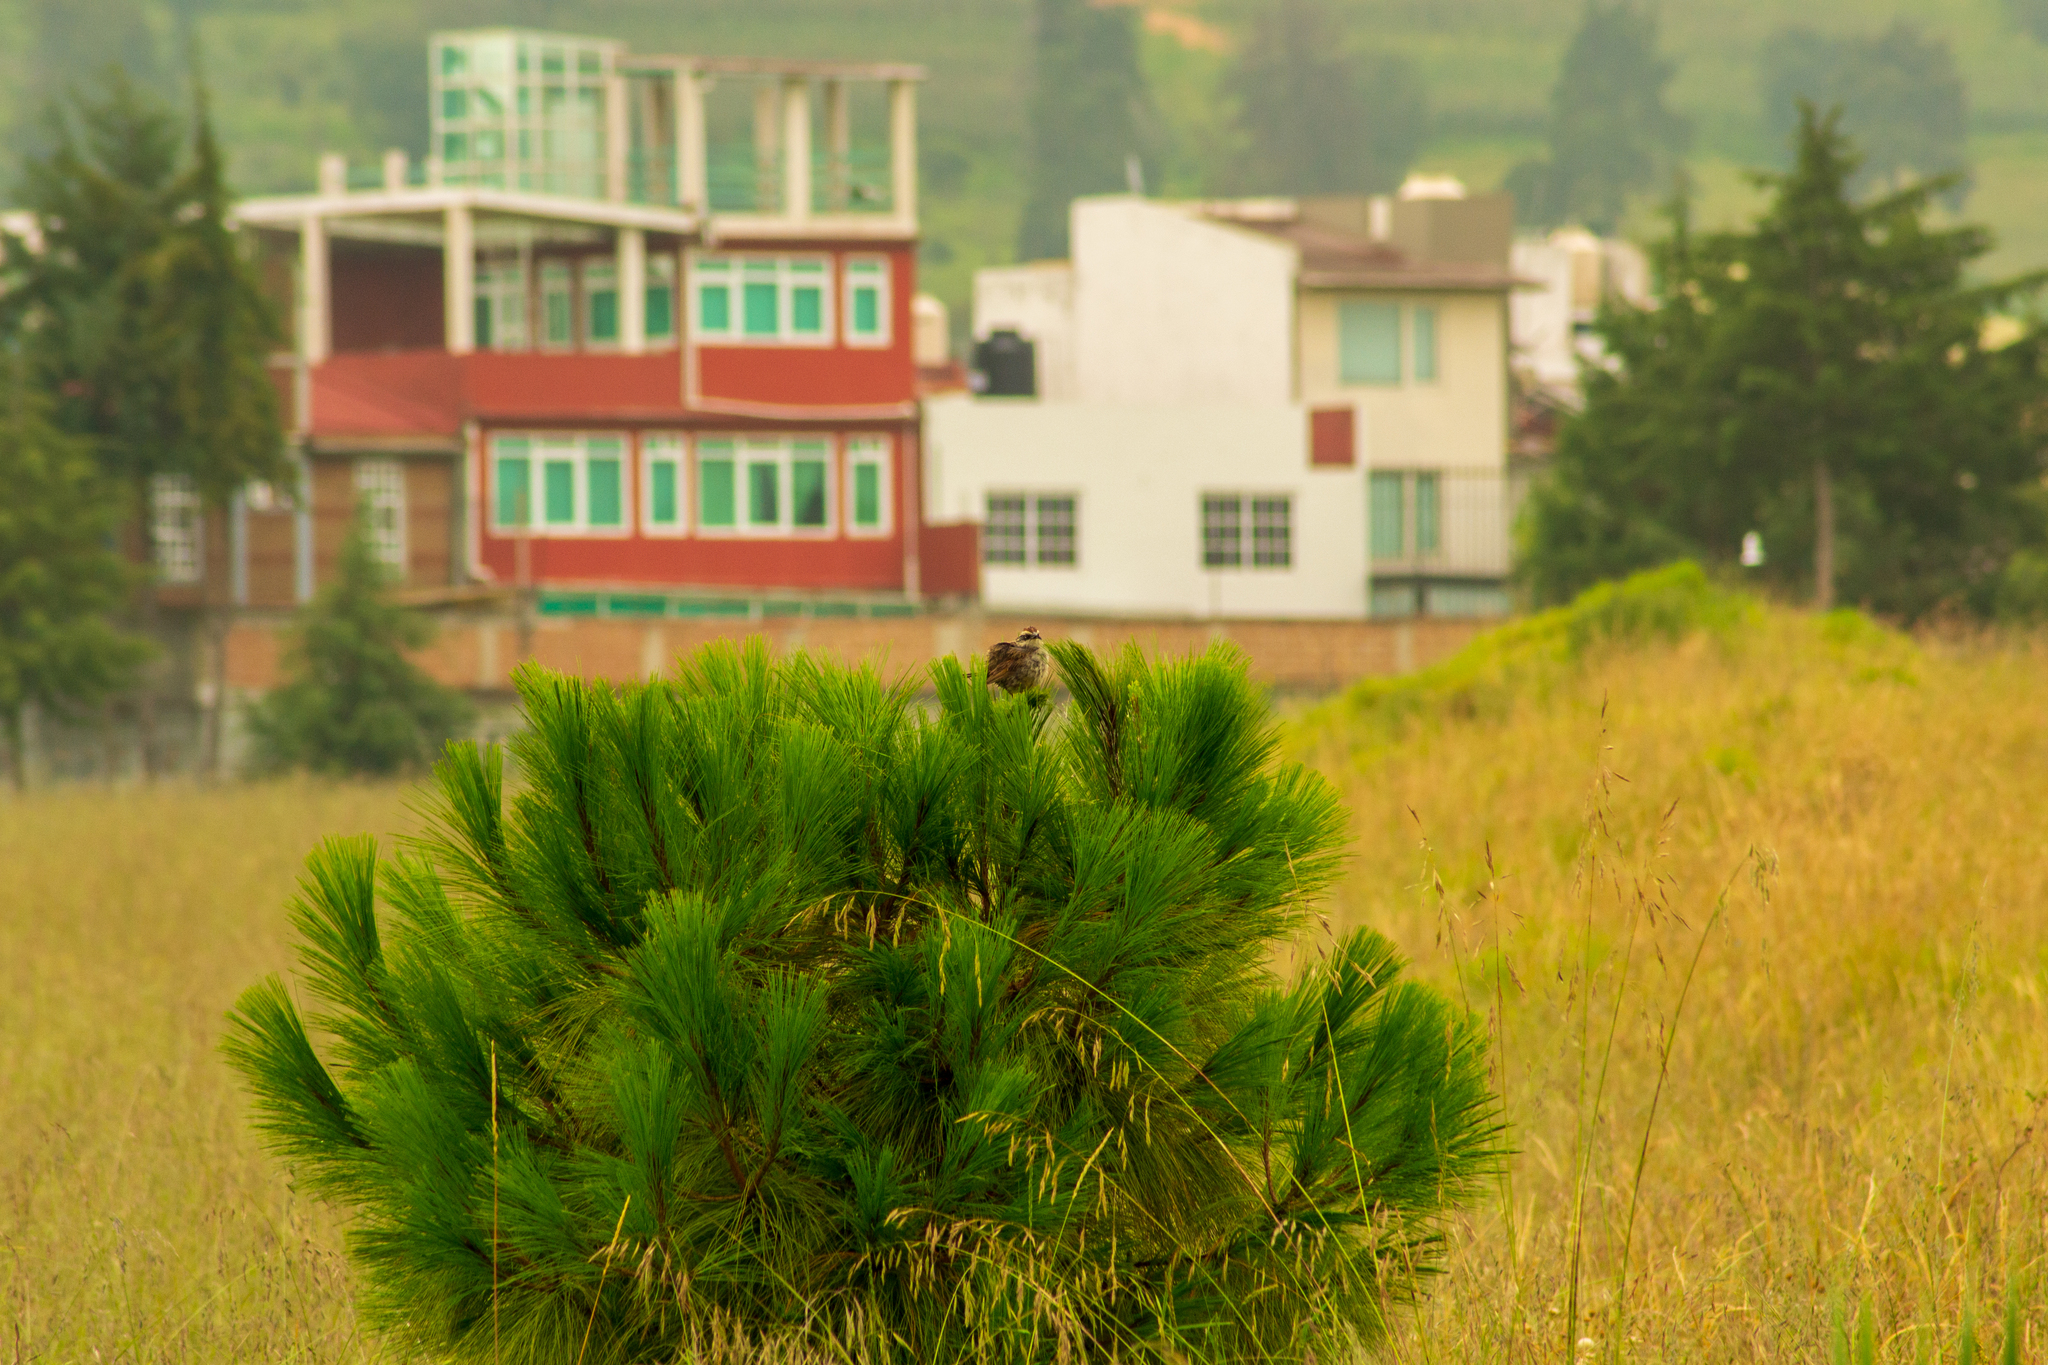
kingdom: Animalia
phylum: Chordata
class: Aves
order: Passeriformes
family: Passerellidae
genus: Oriturus
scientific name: Oriturus superciliosus
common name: Striped sparrow
